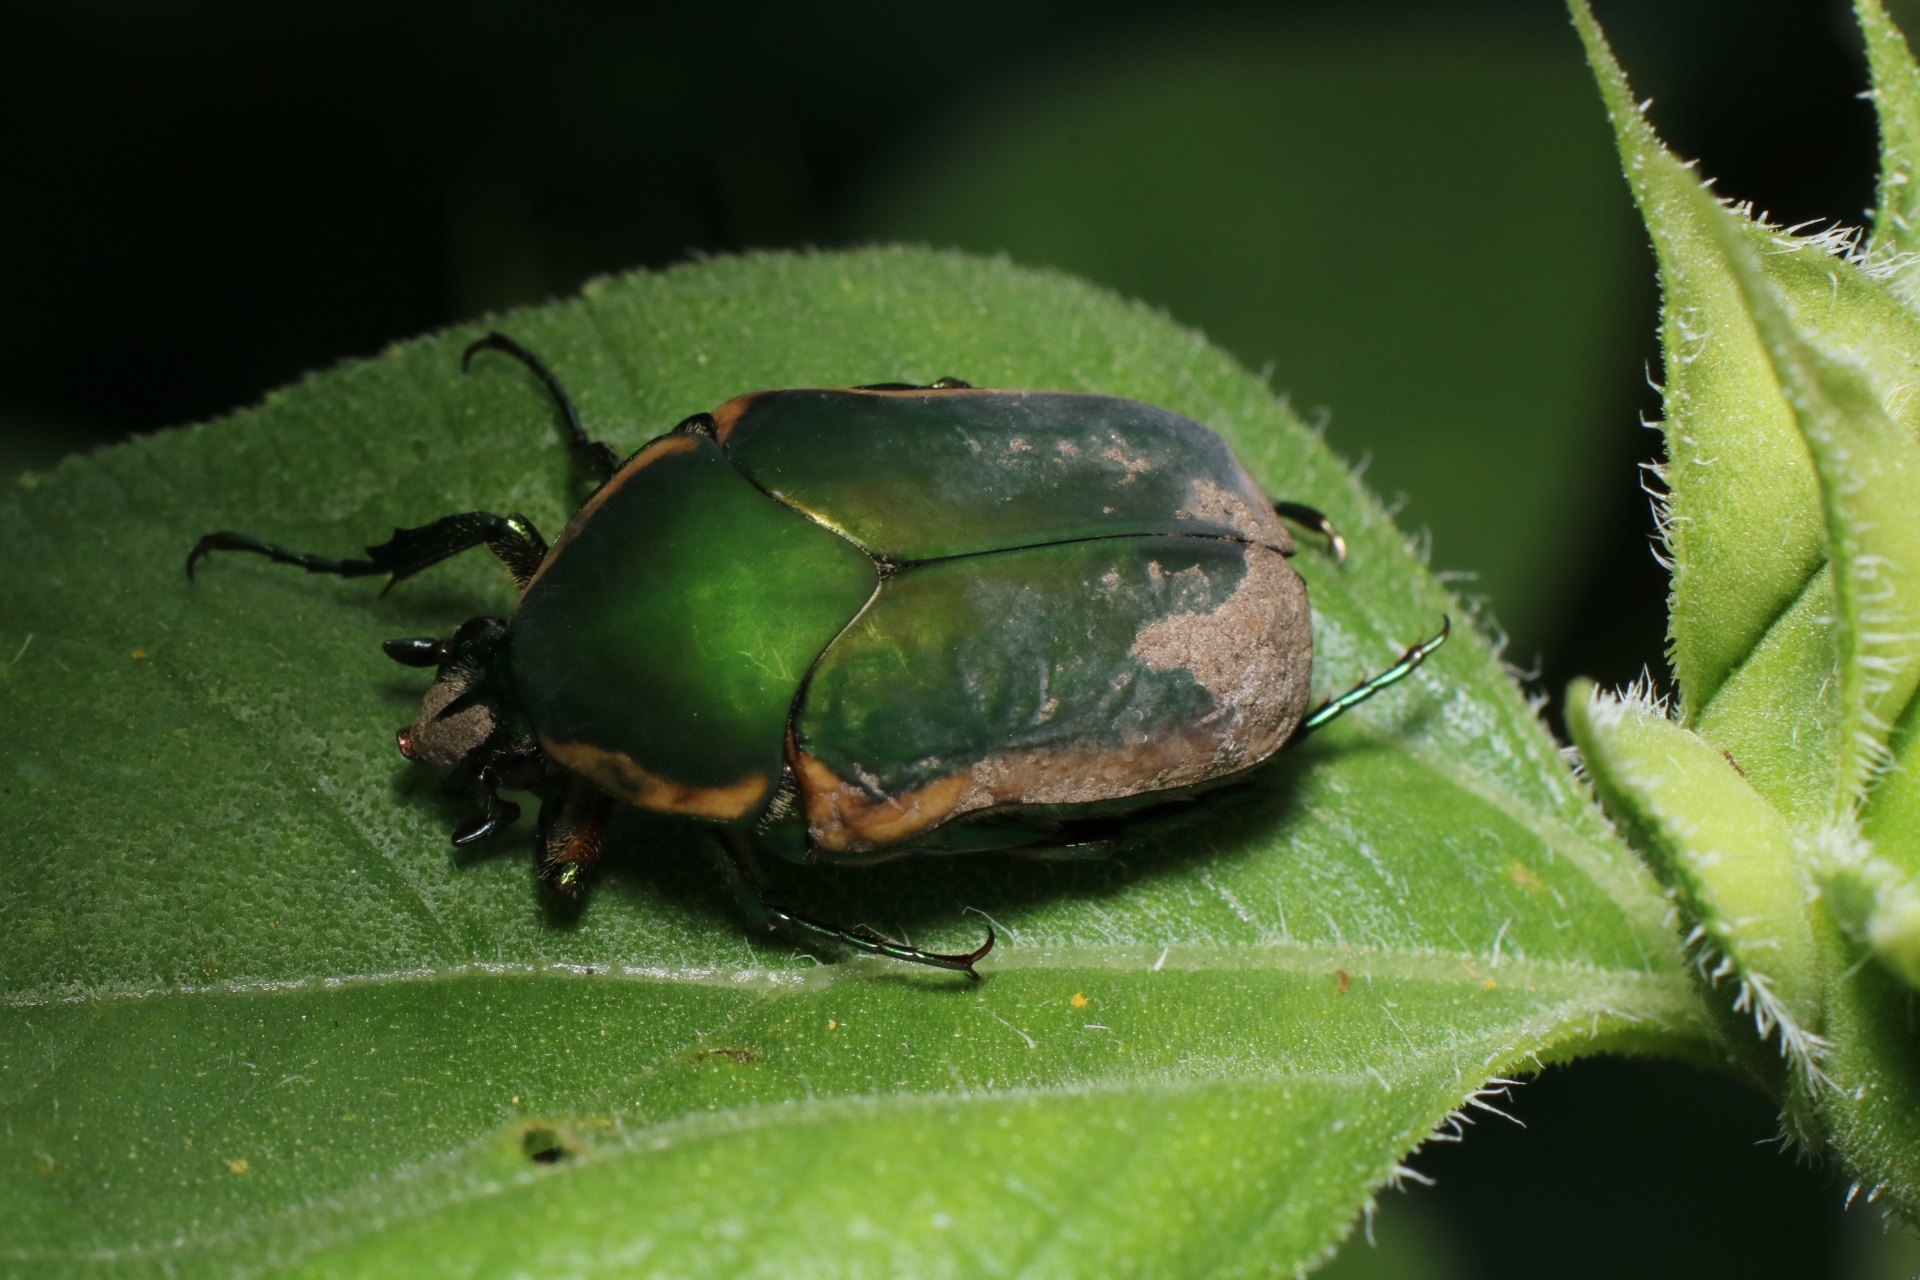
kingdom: Animalia
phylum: Arthropoda
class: Insecta
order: Coleoptera
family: Scarabaeidae
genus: Cotinis
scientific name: Cotinis nitida
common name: Common green june beetle
